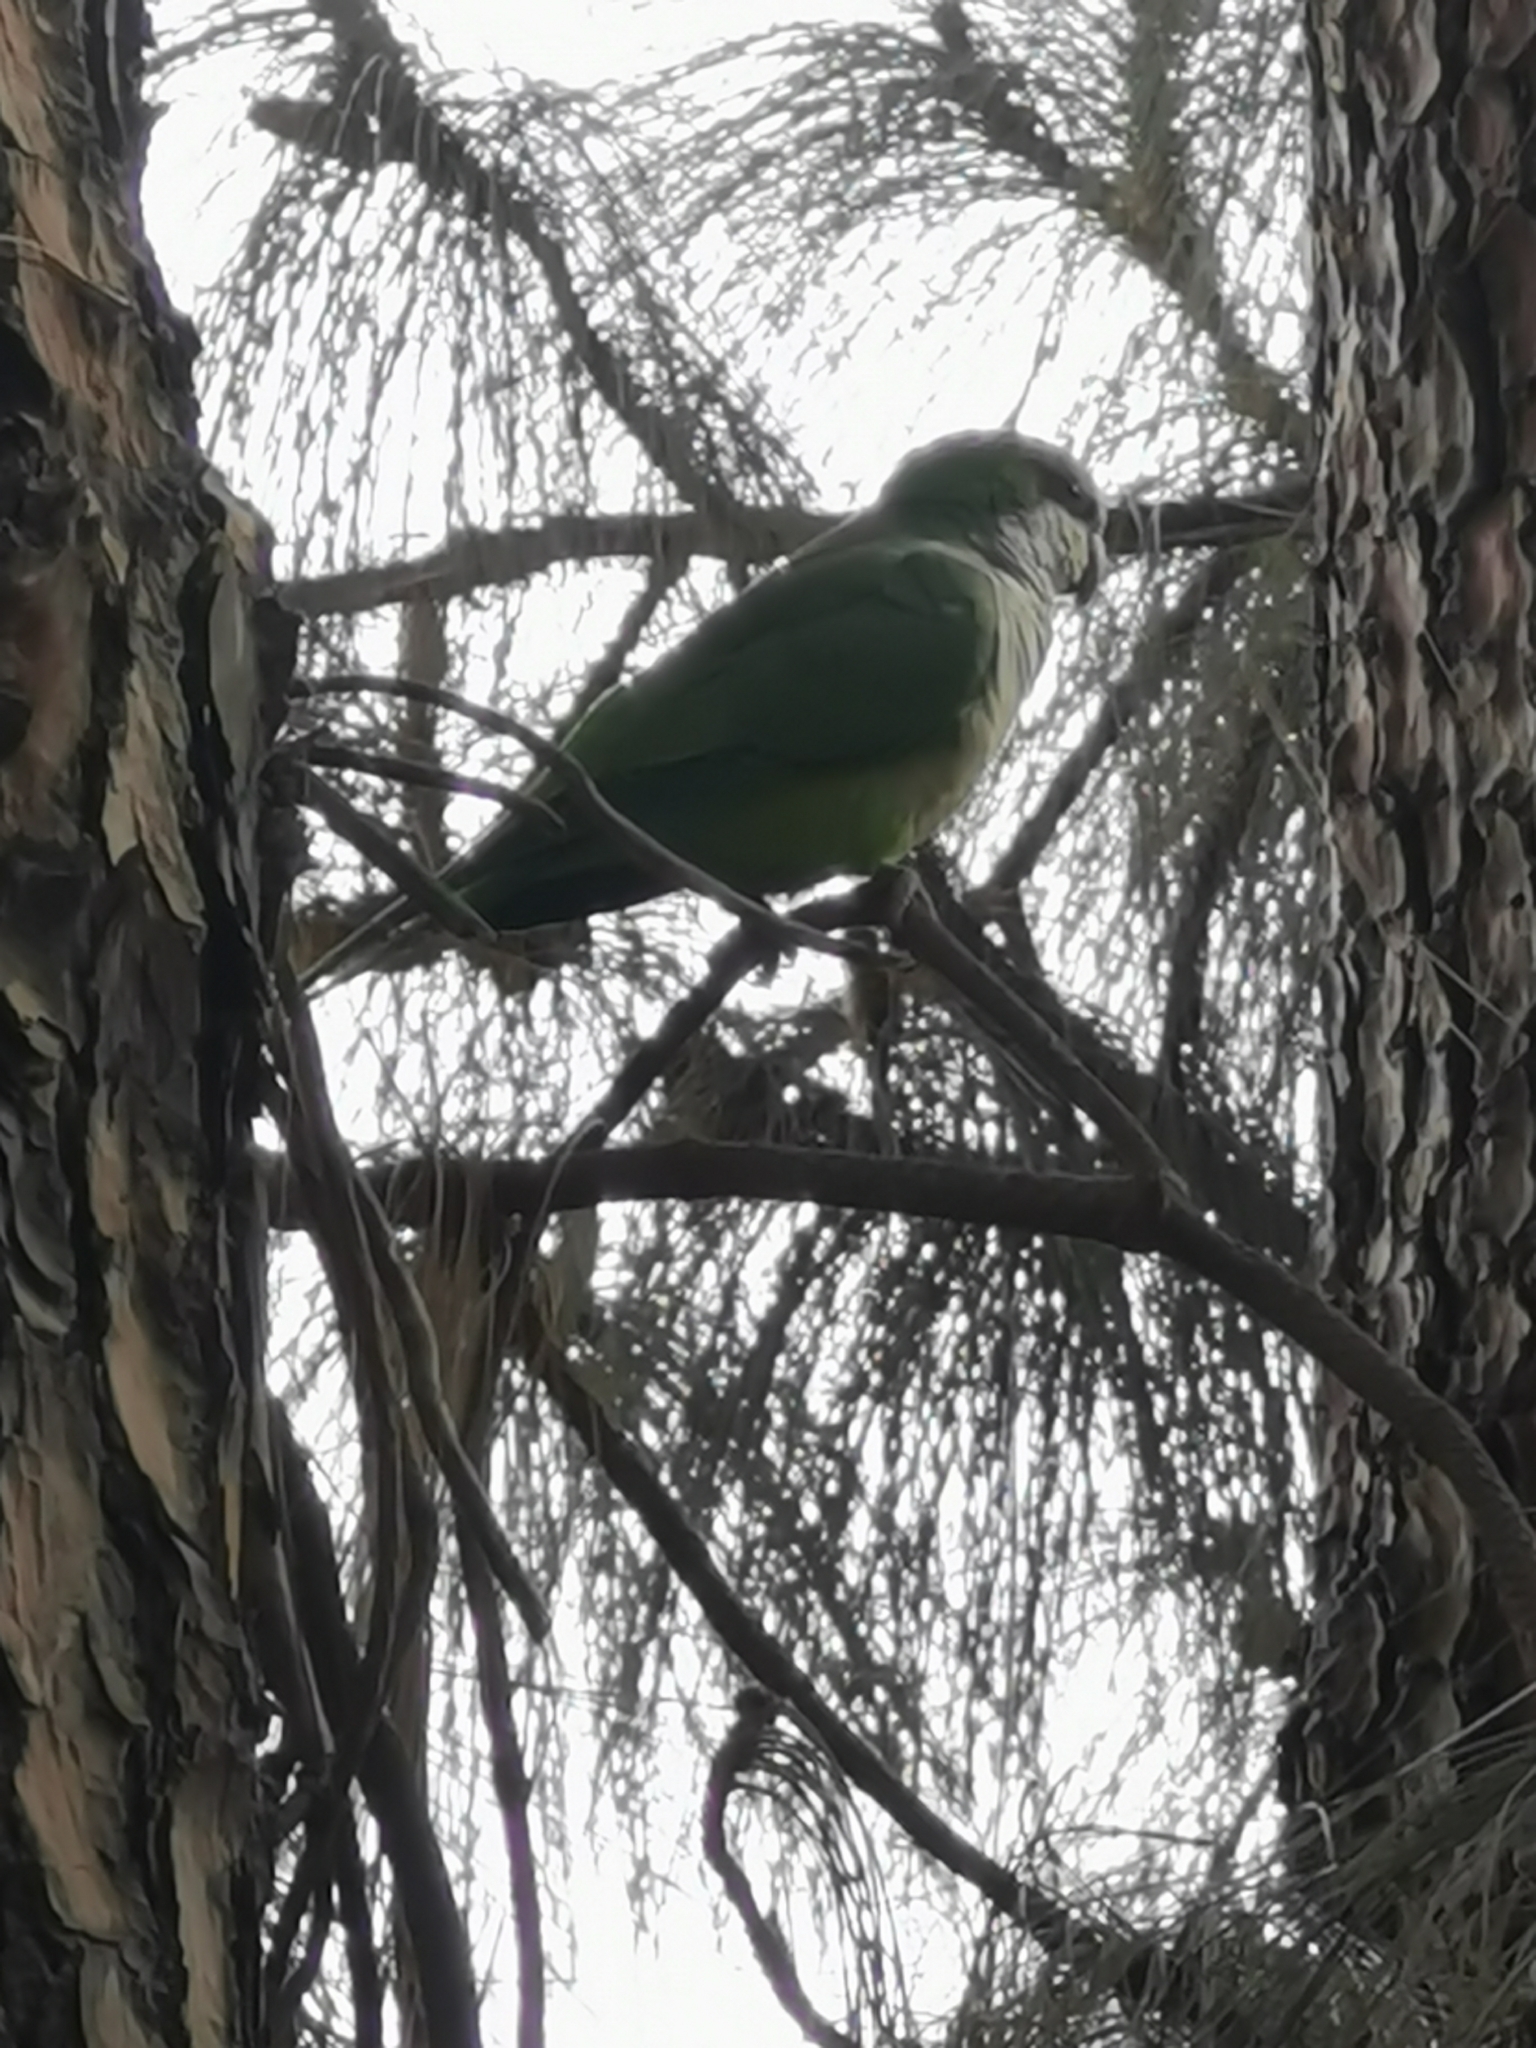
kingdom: Animalia
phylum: Chordata
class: Aves
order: Psittaciformes
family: Psittacidae
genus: Myiopsitta
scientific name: Myiopsitta monachus
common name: Monk parakeet
